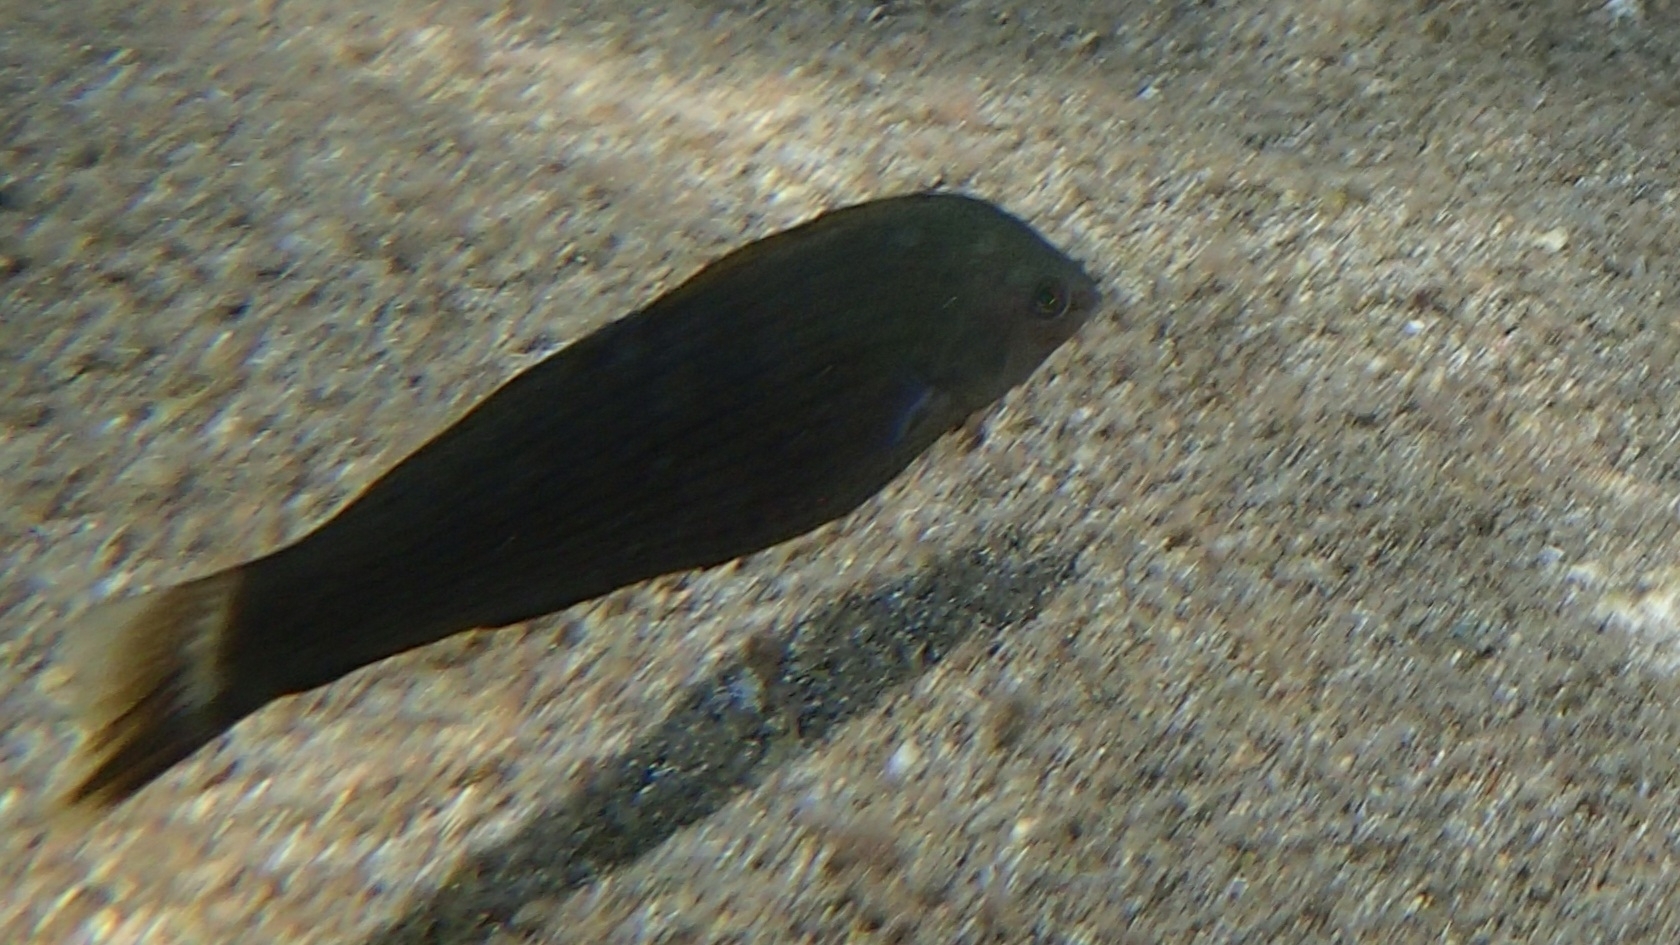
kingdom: Animalia
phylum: Chordata
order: Perciformes
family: Labridae
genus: Halichoeres
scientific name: Halichoeres marginatus
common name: Dusky wrasse
